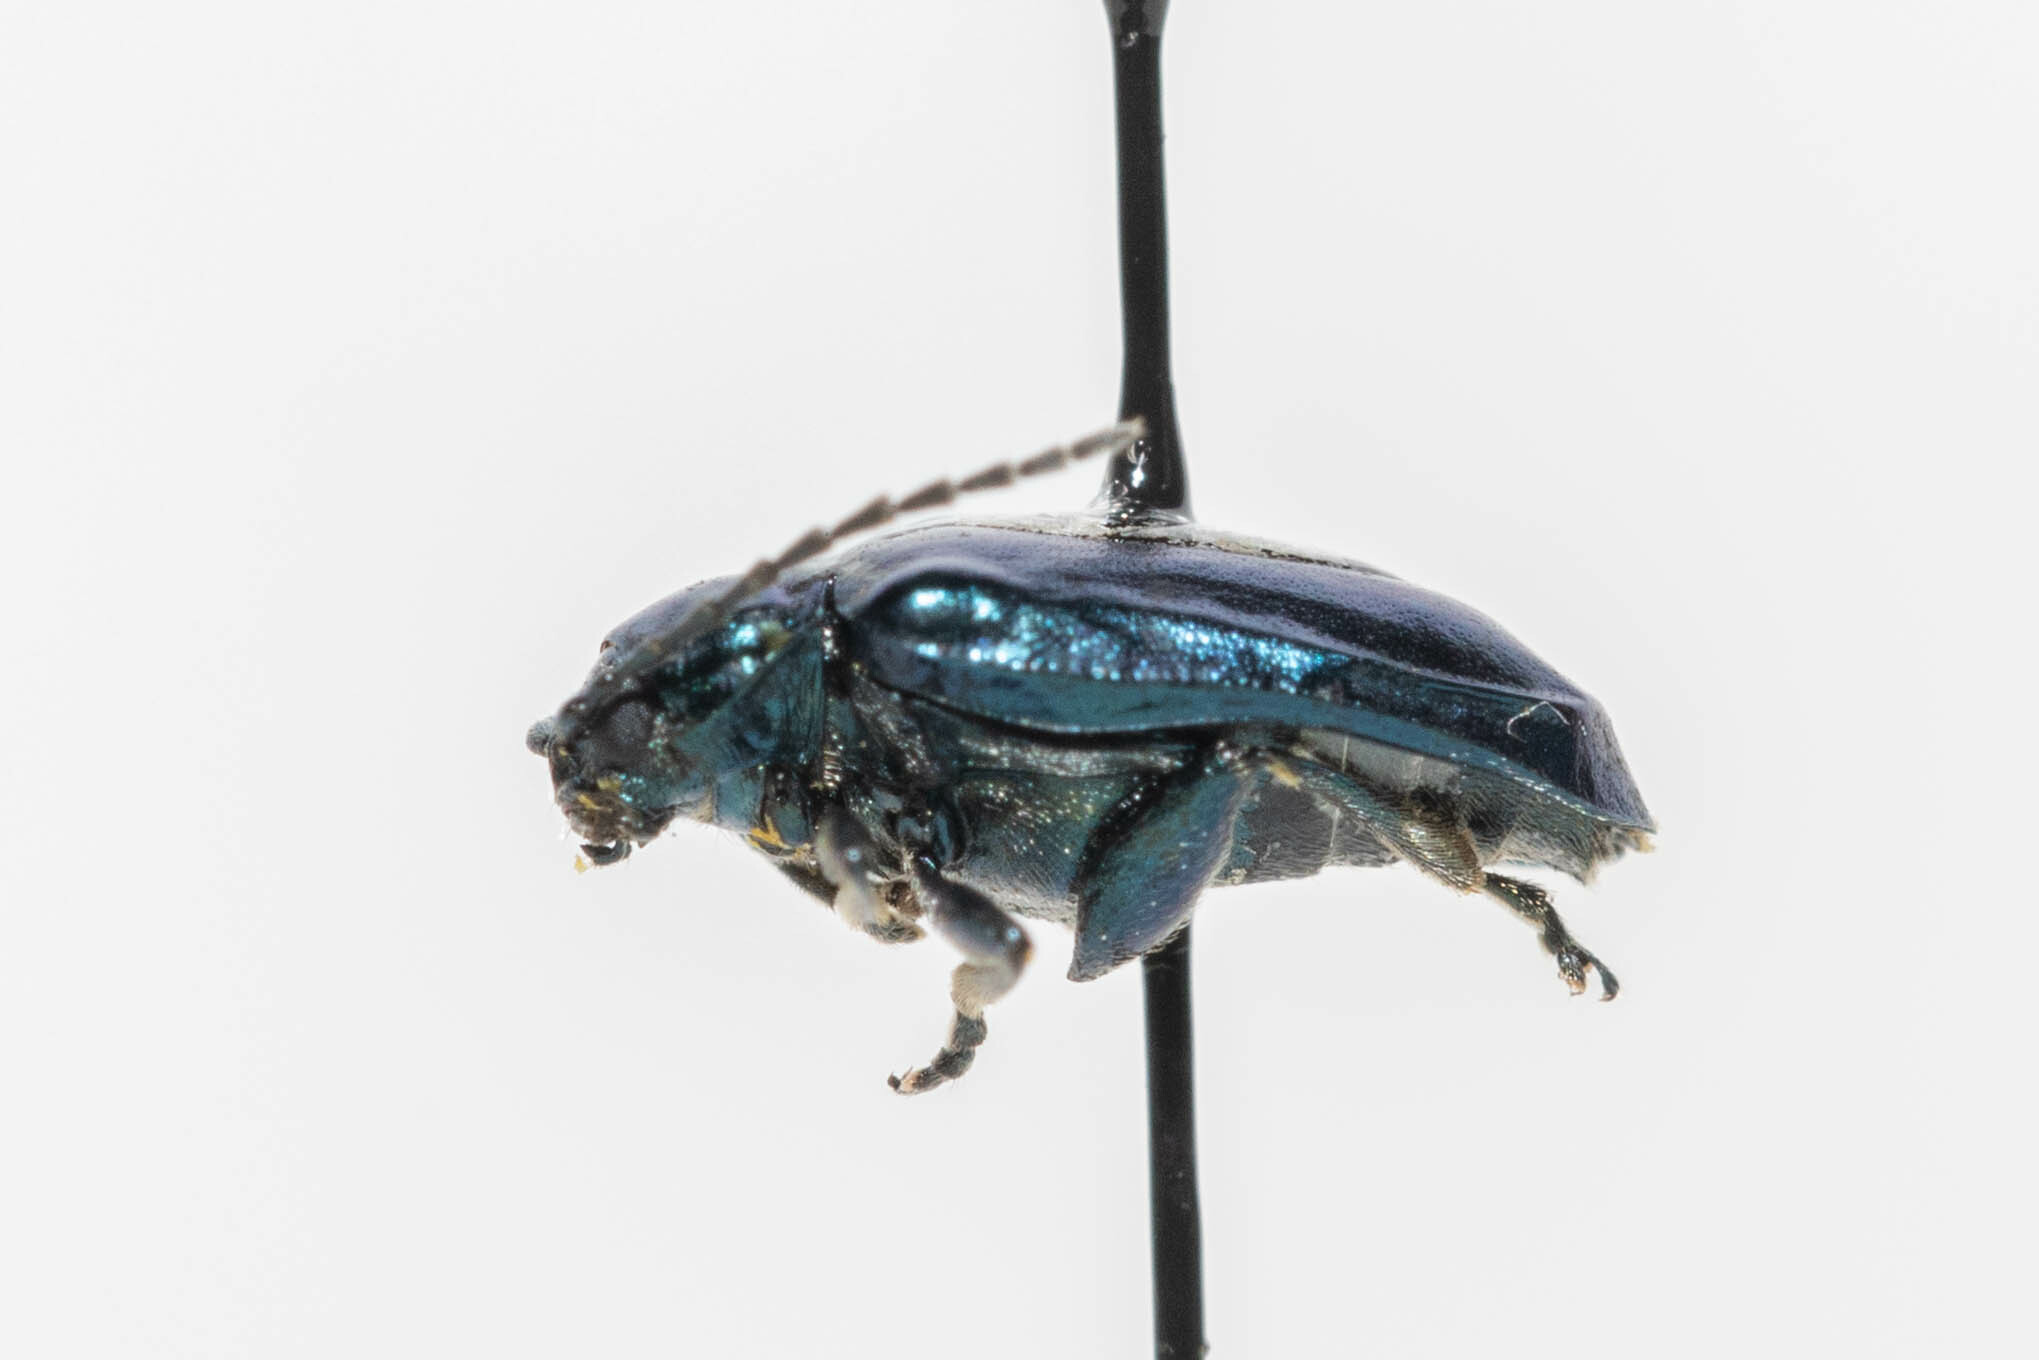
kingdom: Animalia
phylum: Arthropoda
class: Insecta
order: Coleoptera
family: Chrysomelidae
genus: Altica
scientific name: Altica ambiens
